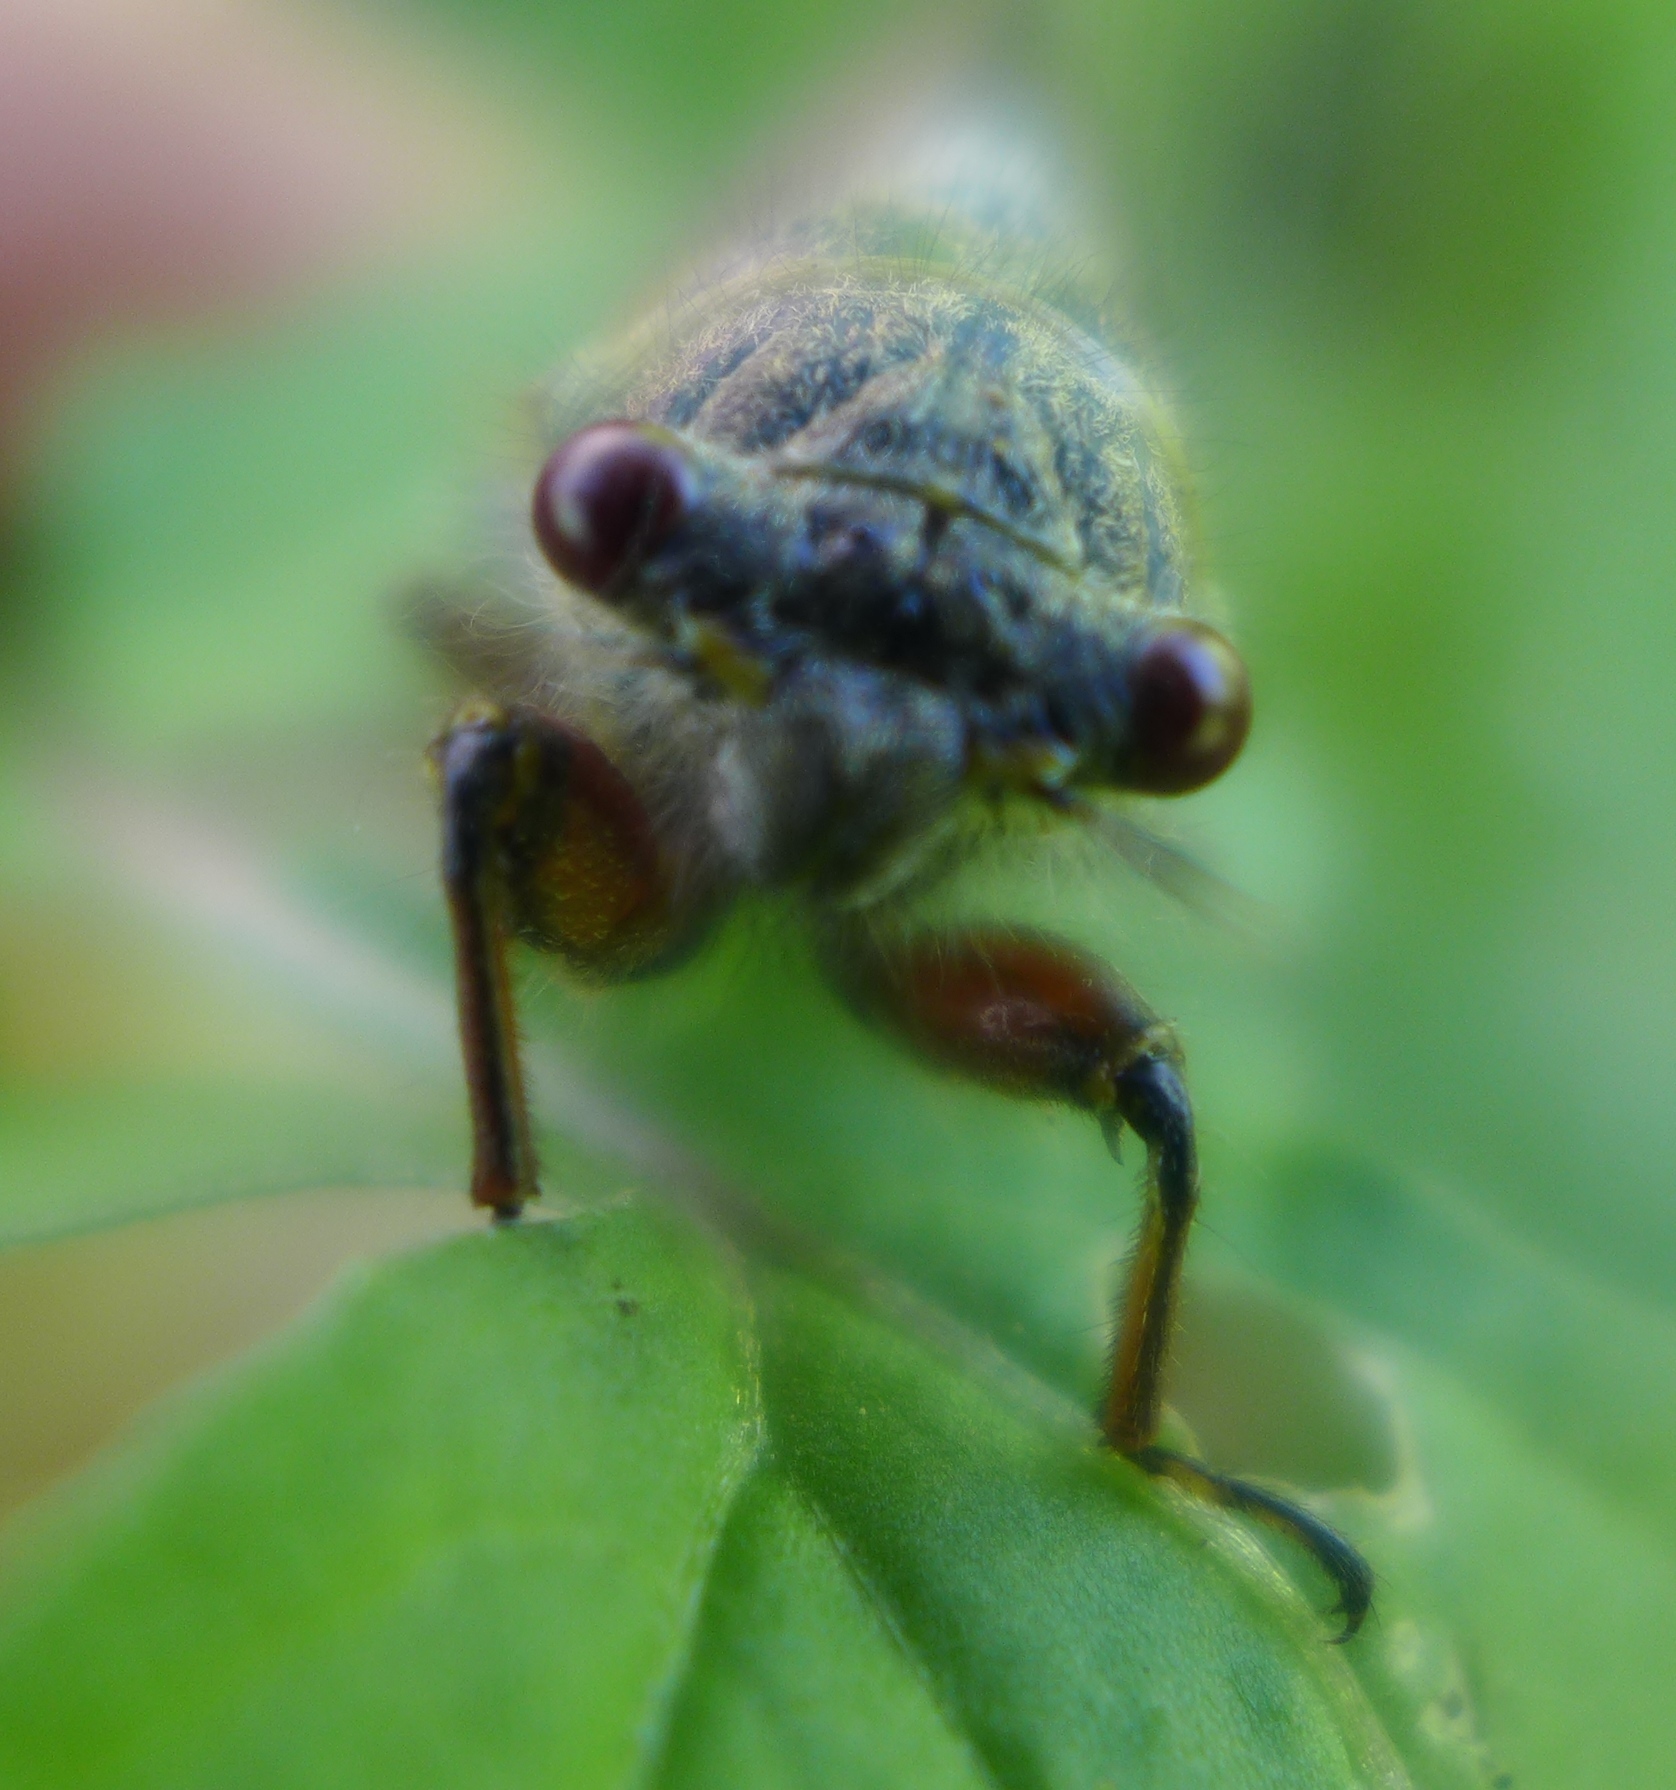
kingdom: Animalia
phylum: Arthropoda
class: Insecta
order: Hemiptera
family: Cicadidae
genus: Platypedia
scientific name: Platypedia areolata
